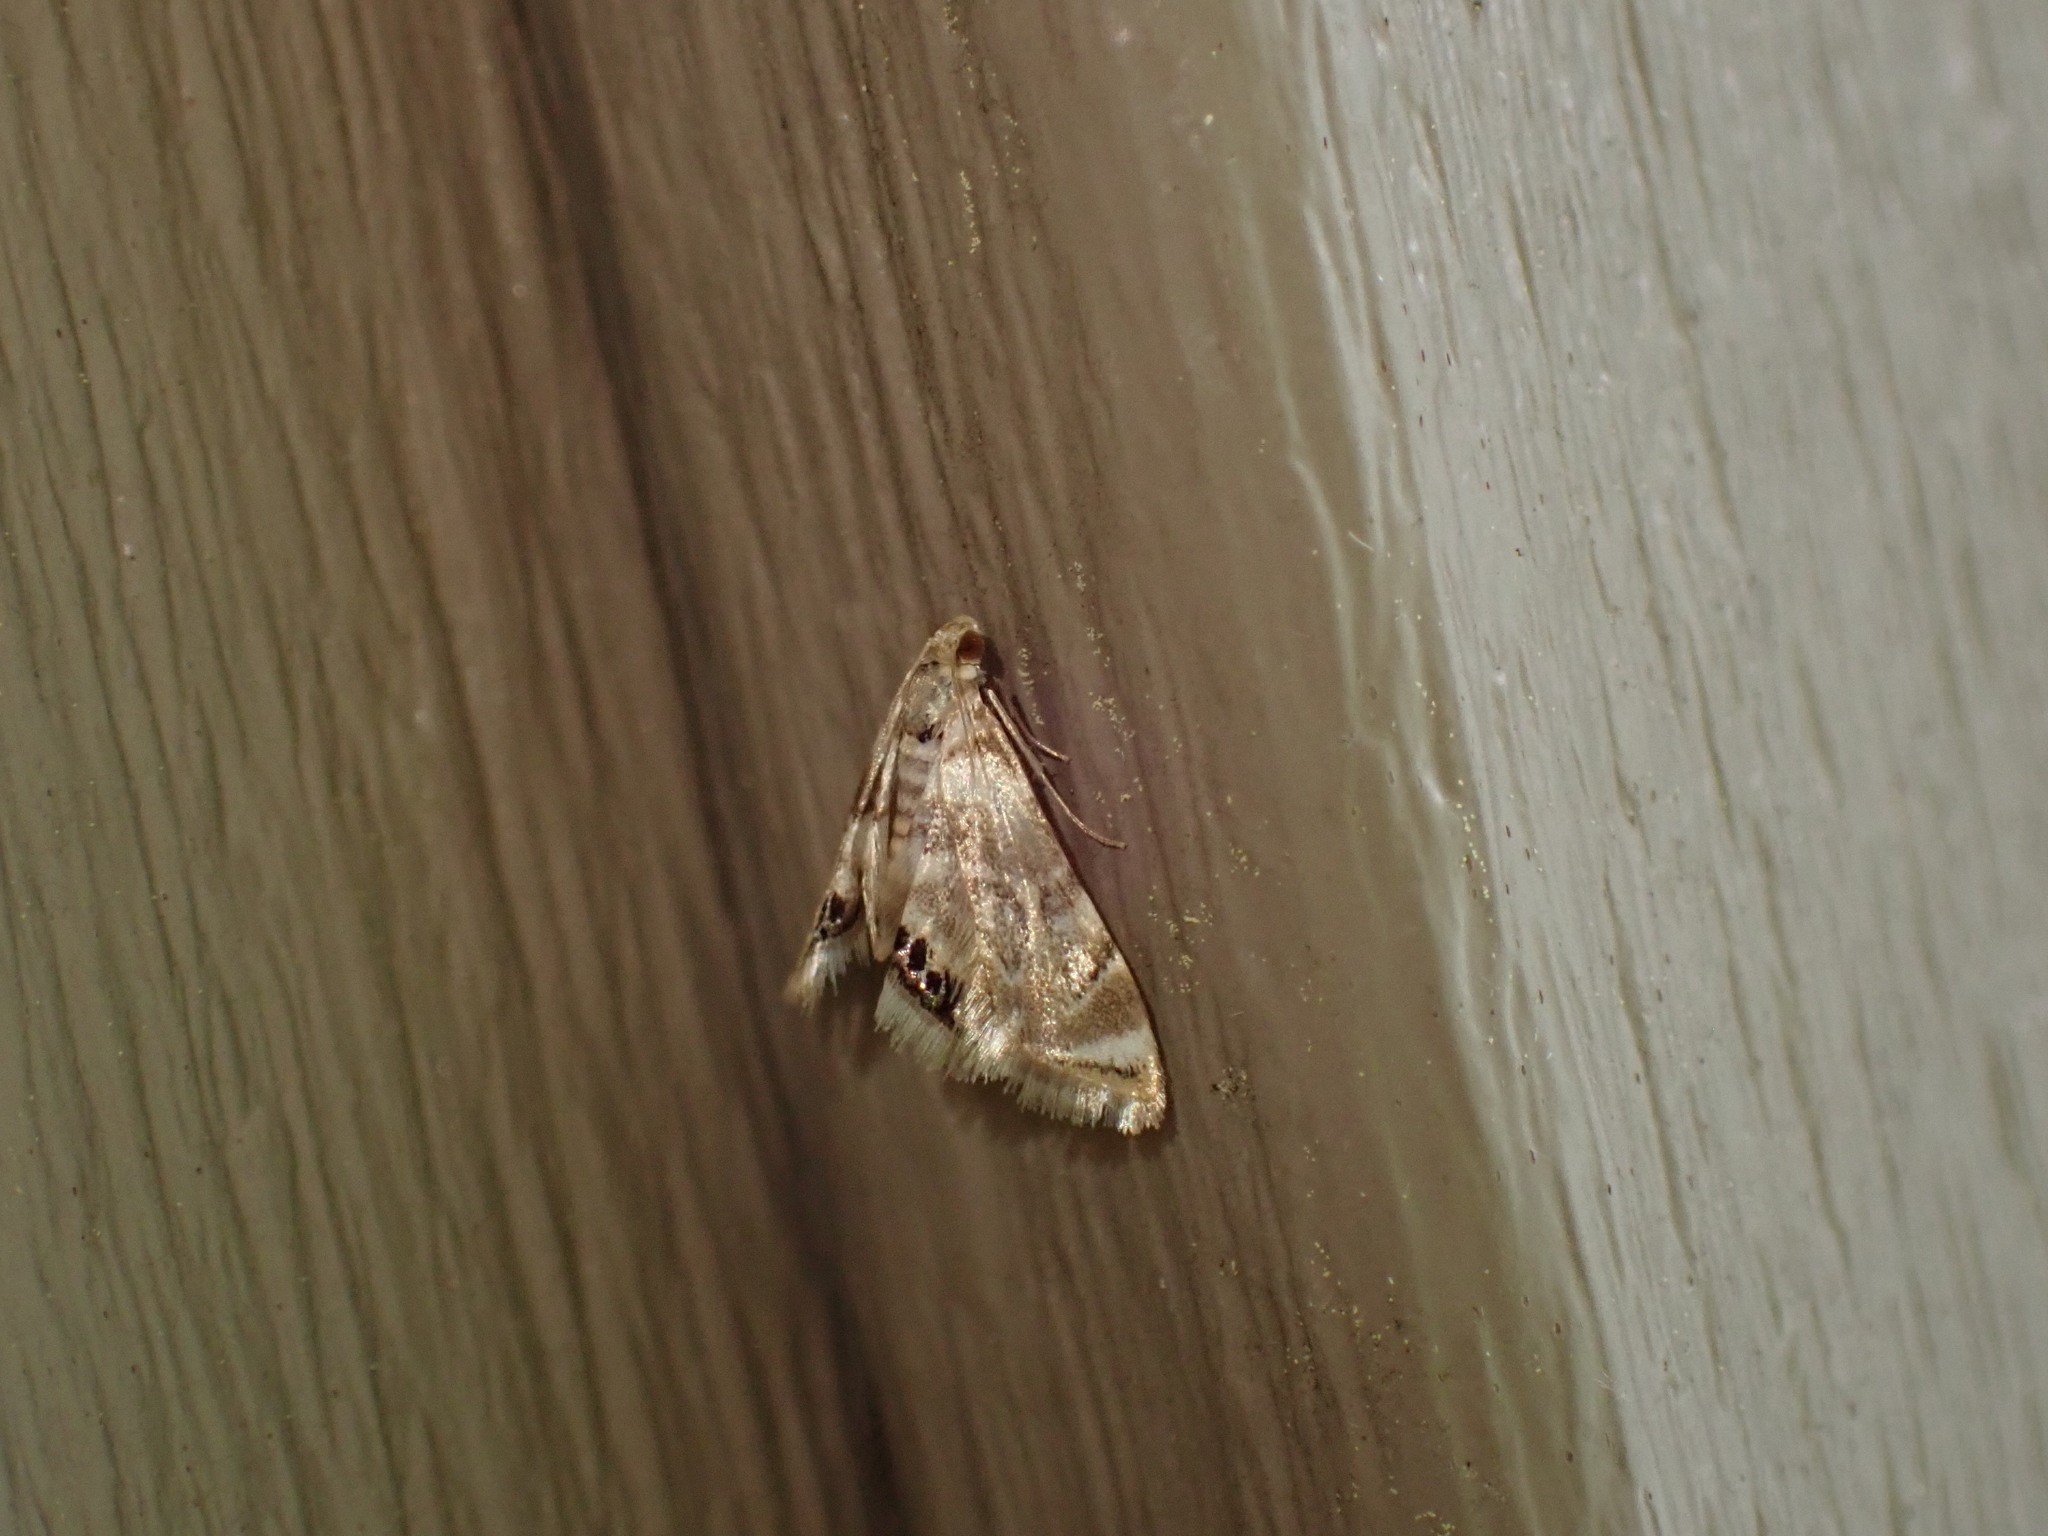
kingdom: Animalia
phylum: Arthropoda
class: Insecta
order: Lepidoptera
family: Crambidae
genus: Eoparargyractis
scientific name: Eoparargyractis plevie
